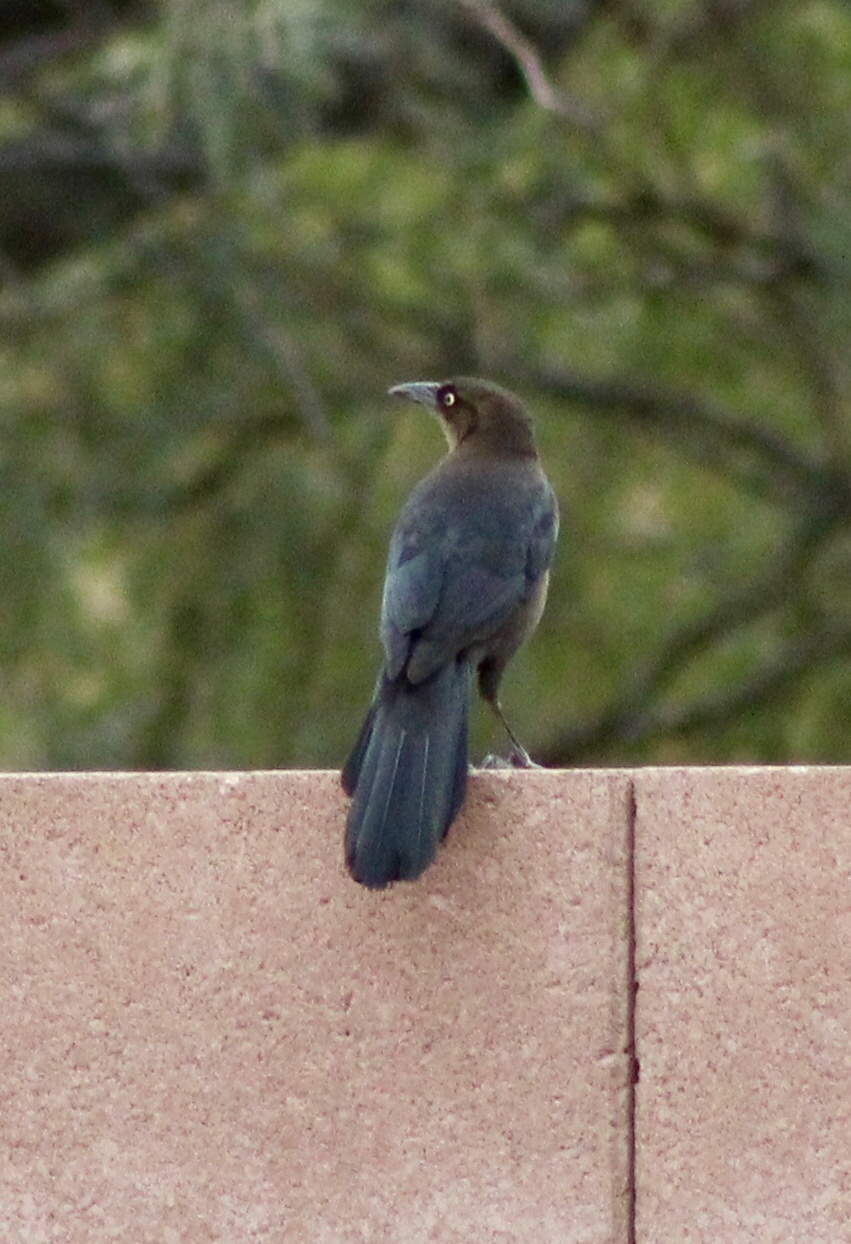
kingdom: Animalia
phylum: Chordata
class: Aves
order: Passeriformes
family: Icteridae
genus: Quiscalus
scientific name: Quiscalus mexicanus
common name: Great-tailed grackle
